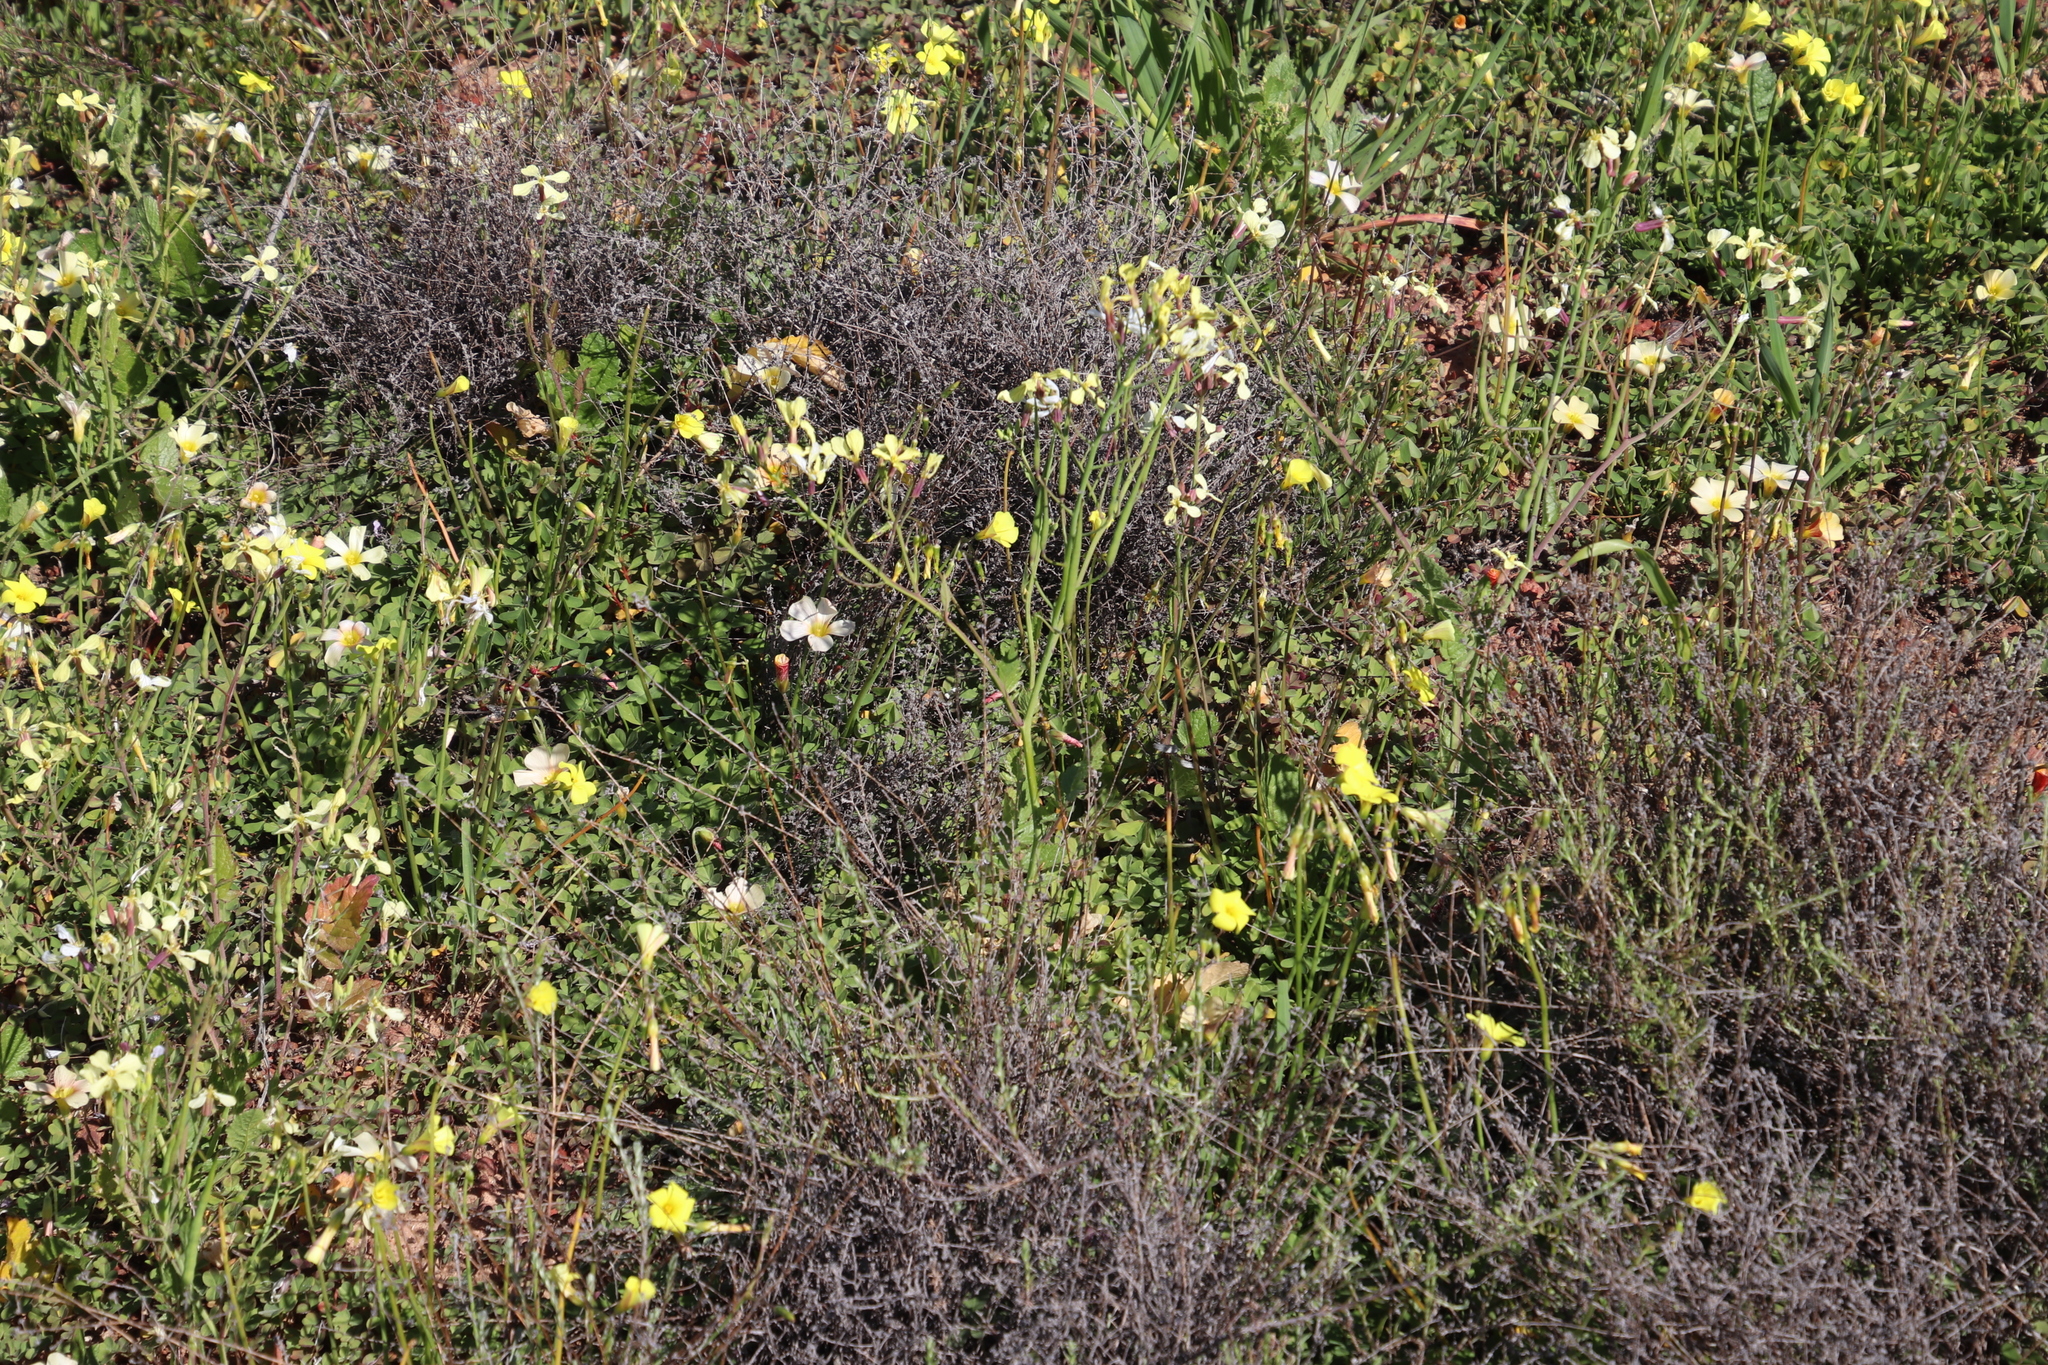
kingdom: Plantae
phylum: Tracheophyta
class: Magnoliopsida
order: Brassicales
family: Brassicaceae
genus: Raphanus
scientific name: Raphanus raphanistrum
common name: Wild radish
